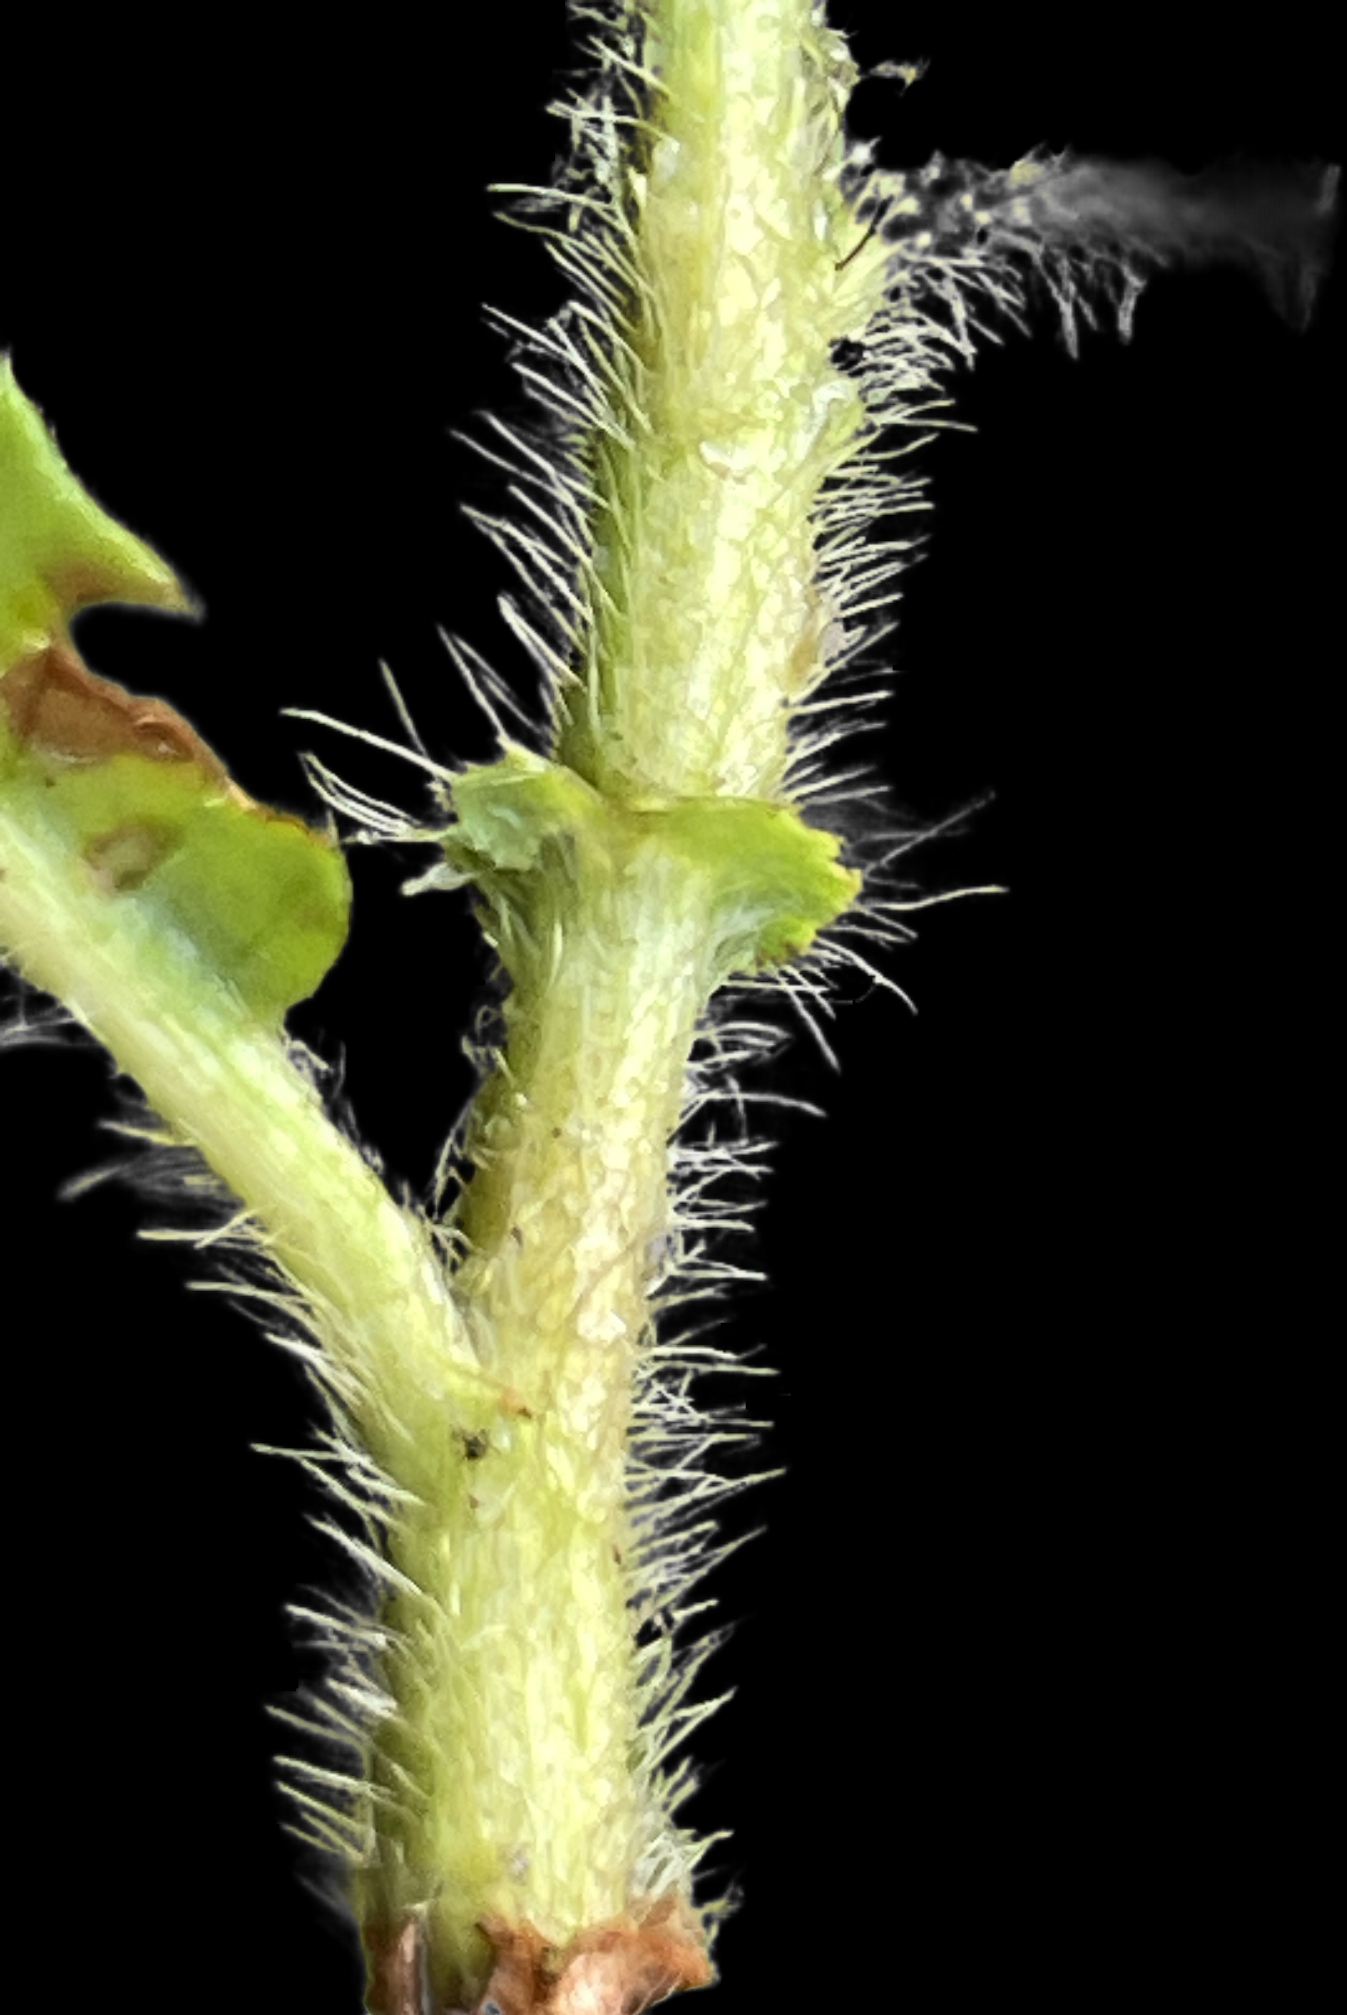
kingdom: Plantae
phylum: Tracheophyta
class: Magnoliopsida
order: Caryophyllales
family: Polygonaceae
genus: Persicaria
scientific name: Persicaria amphibia
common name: Amphibious bistort
